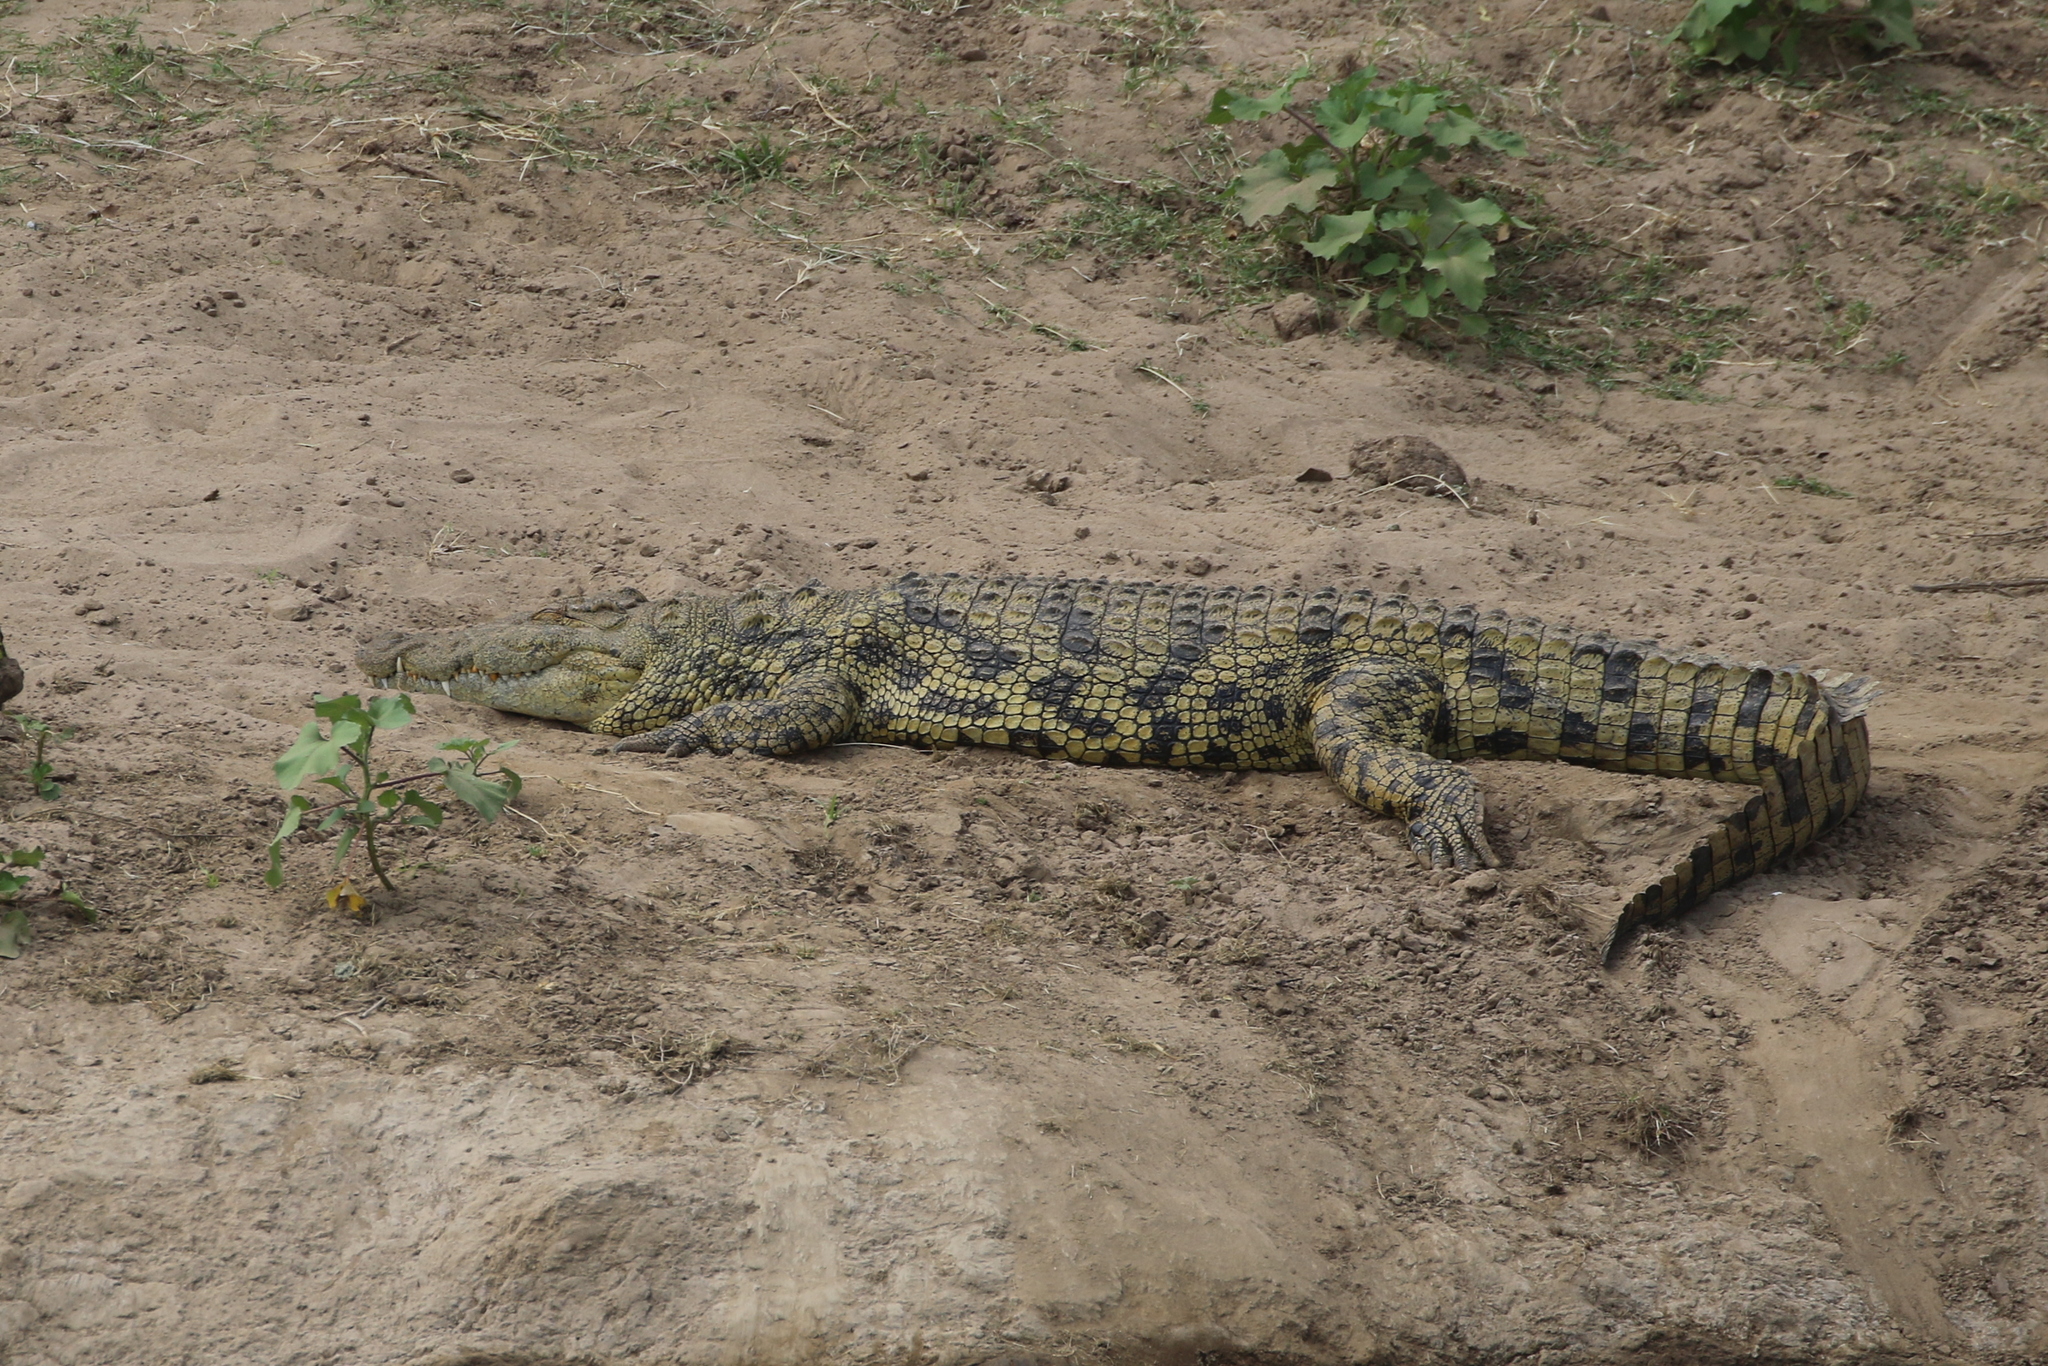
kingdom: Animalia
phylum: Chordata
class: Crocodylia
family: Crocodylidae
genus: Crocodylus
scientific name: Crocodylus niloticus
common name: Nile crocodile
